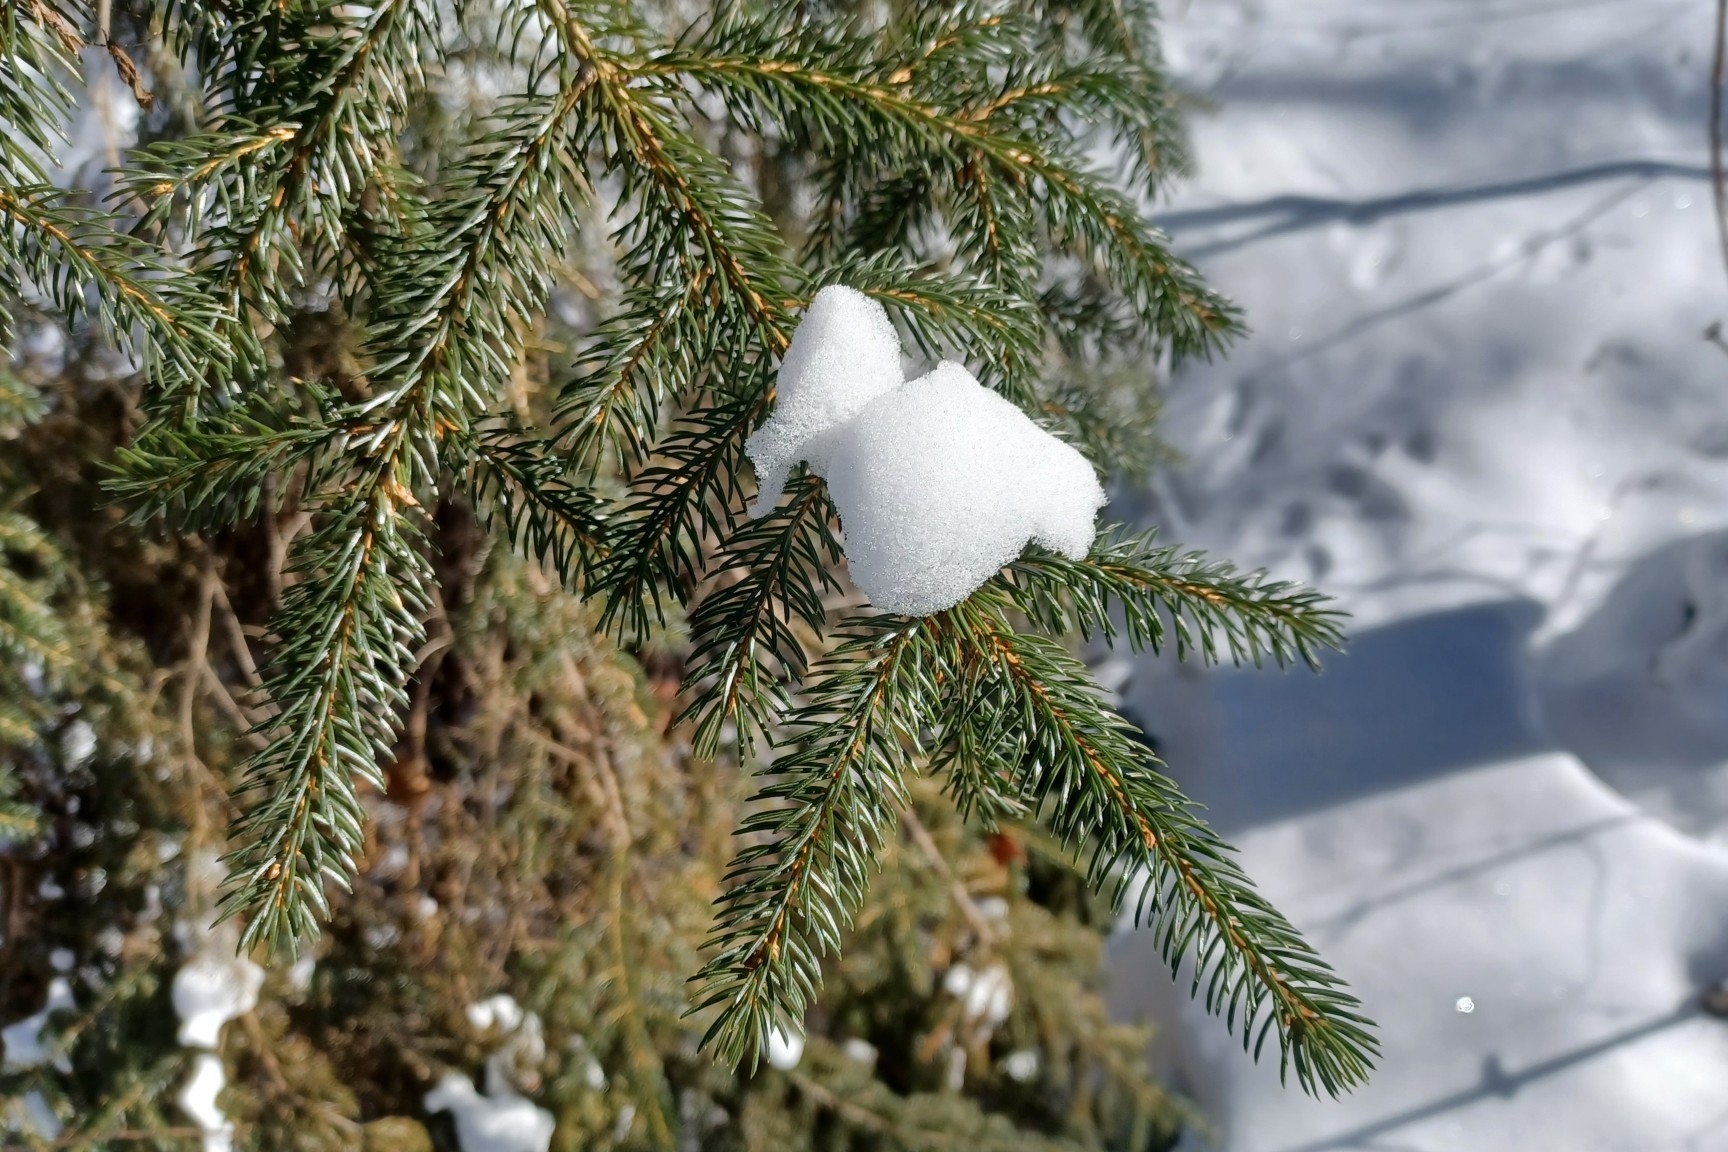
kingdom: Plantae
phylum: Tracheophyta
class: Pinopsida
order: Pinales
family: Pinaceae
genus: Picea
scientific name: Picea rubens
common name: Red spruce
